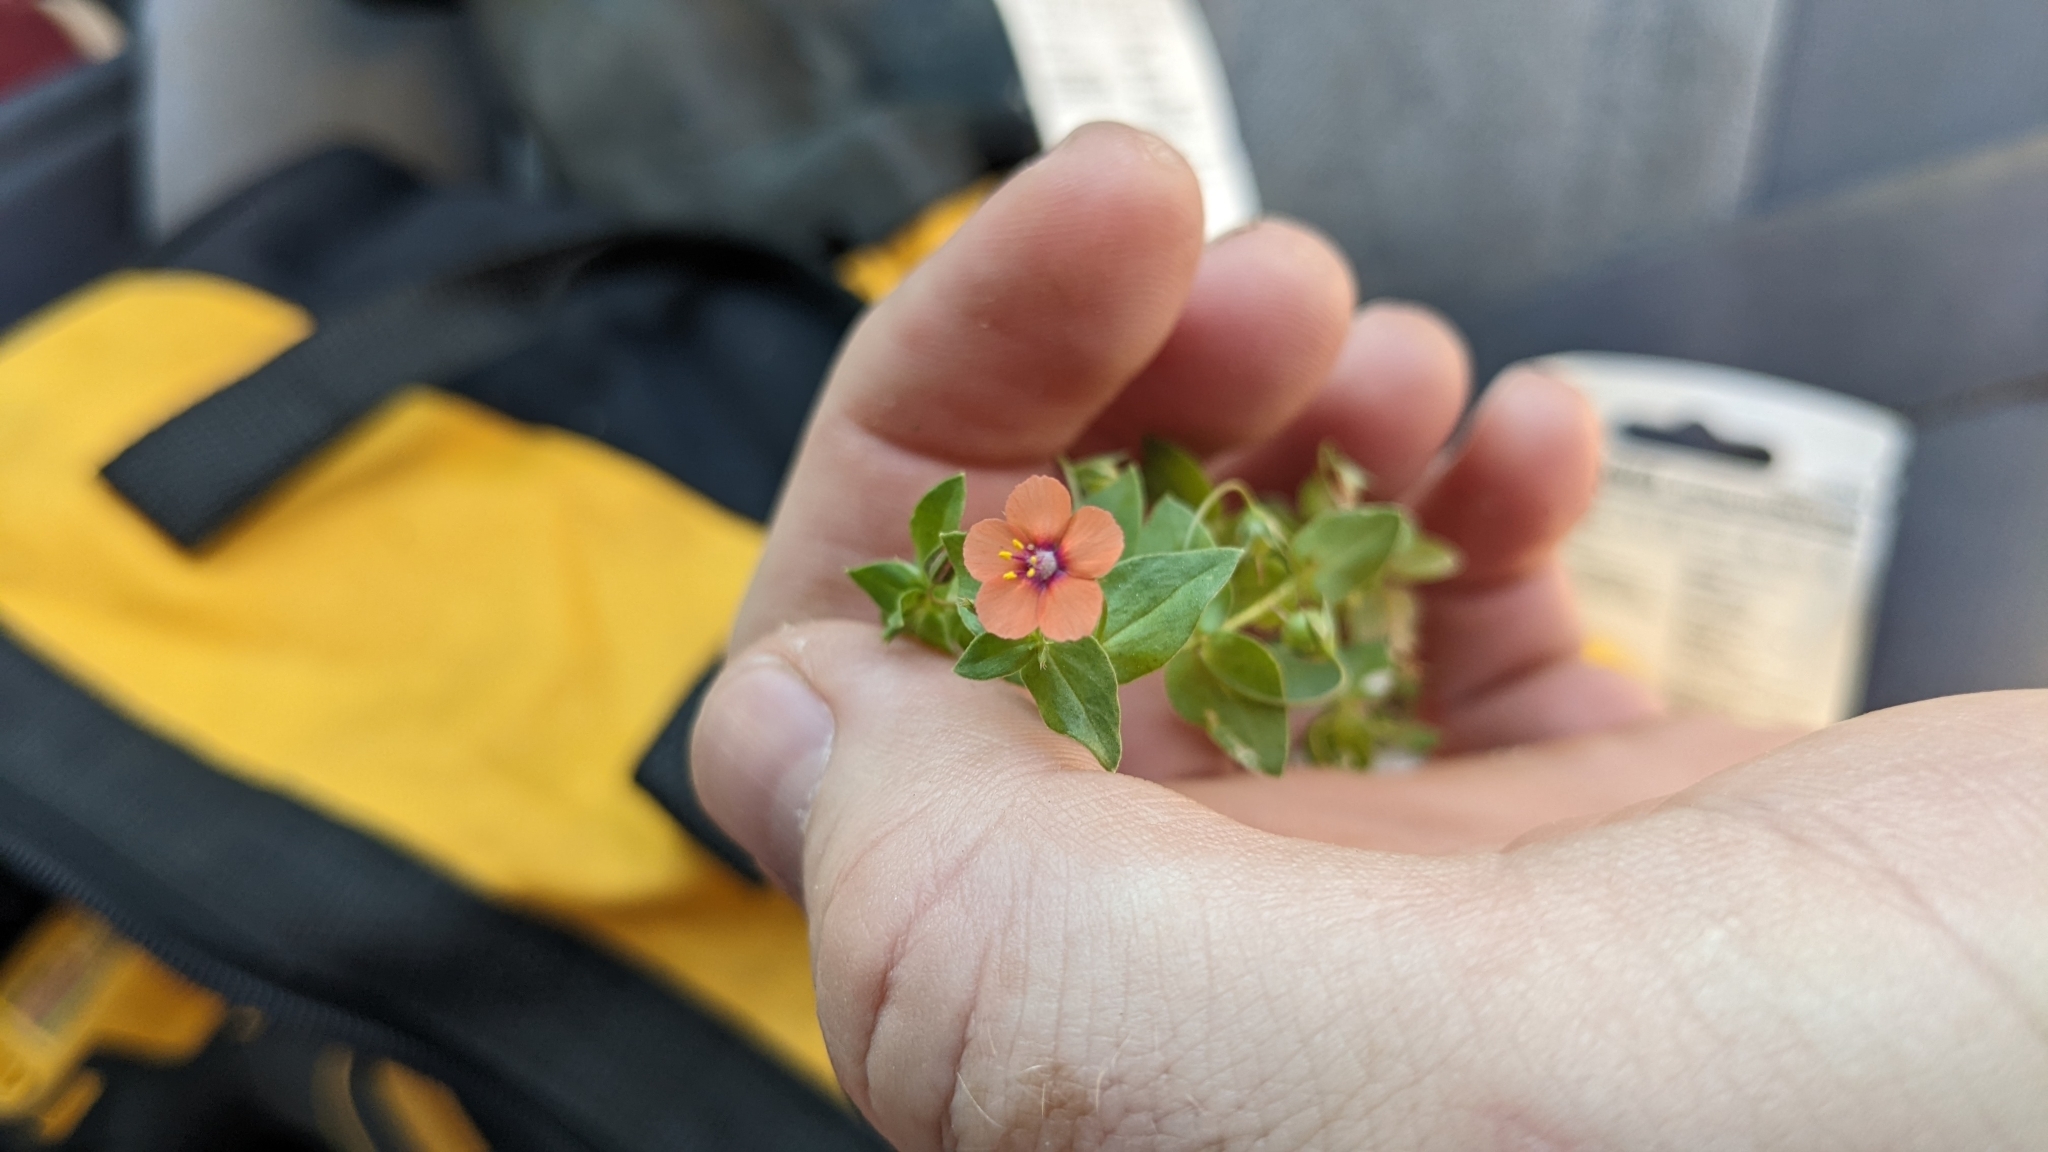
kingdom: Plantae
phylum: Tracheophyta
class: Magnoliopsida
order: Ericales
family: Primulaceae
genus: Lysimachia
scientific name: Lysimachia arvensis
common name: Scarlet pimpernel
